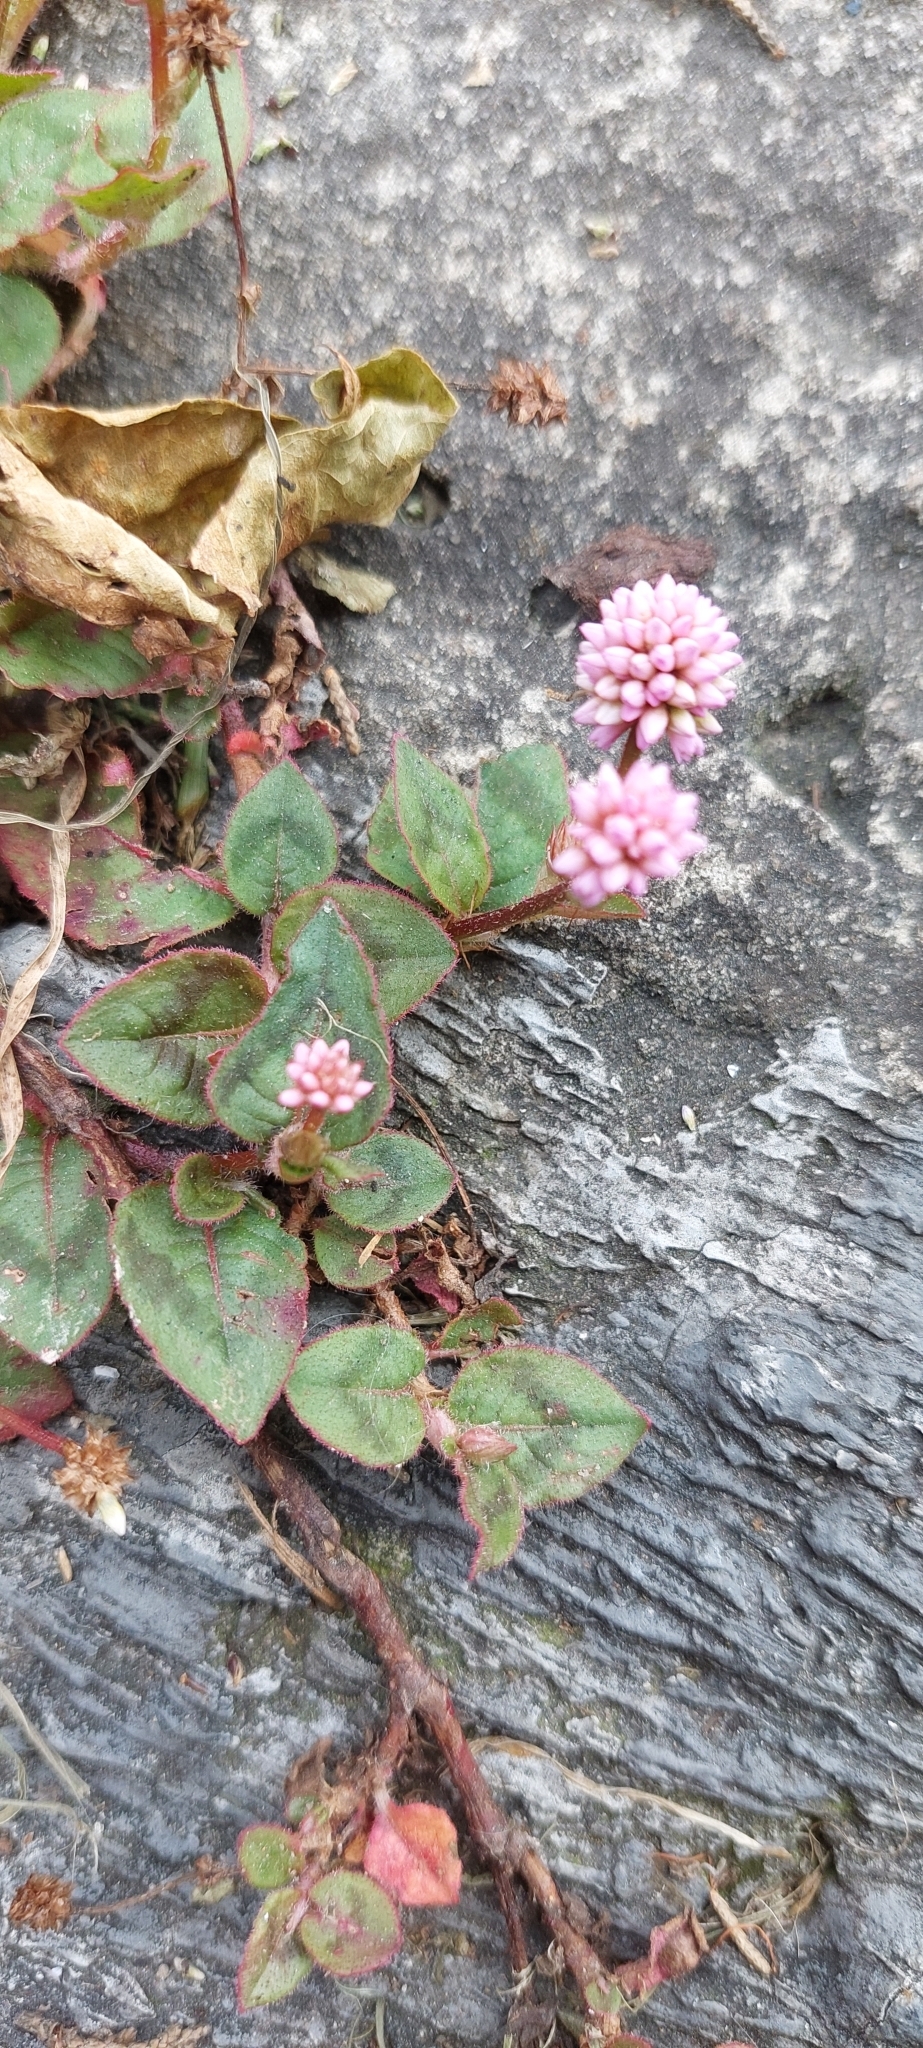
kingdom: Plantae
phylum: Tracheophyta
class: Magnoliopsida
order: Caryophyllales
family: Polygonaceae
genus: Persicaria
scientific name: Persicaria capitata
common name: Pinkhead smartweed
